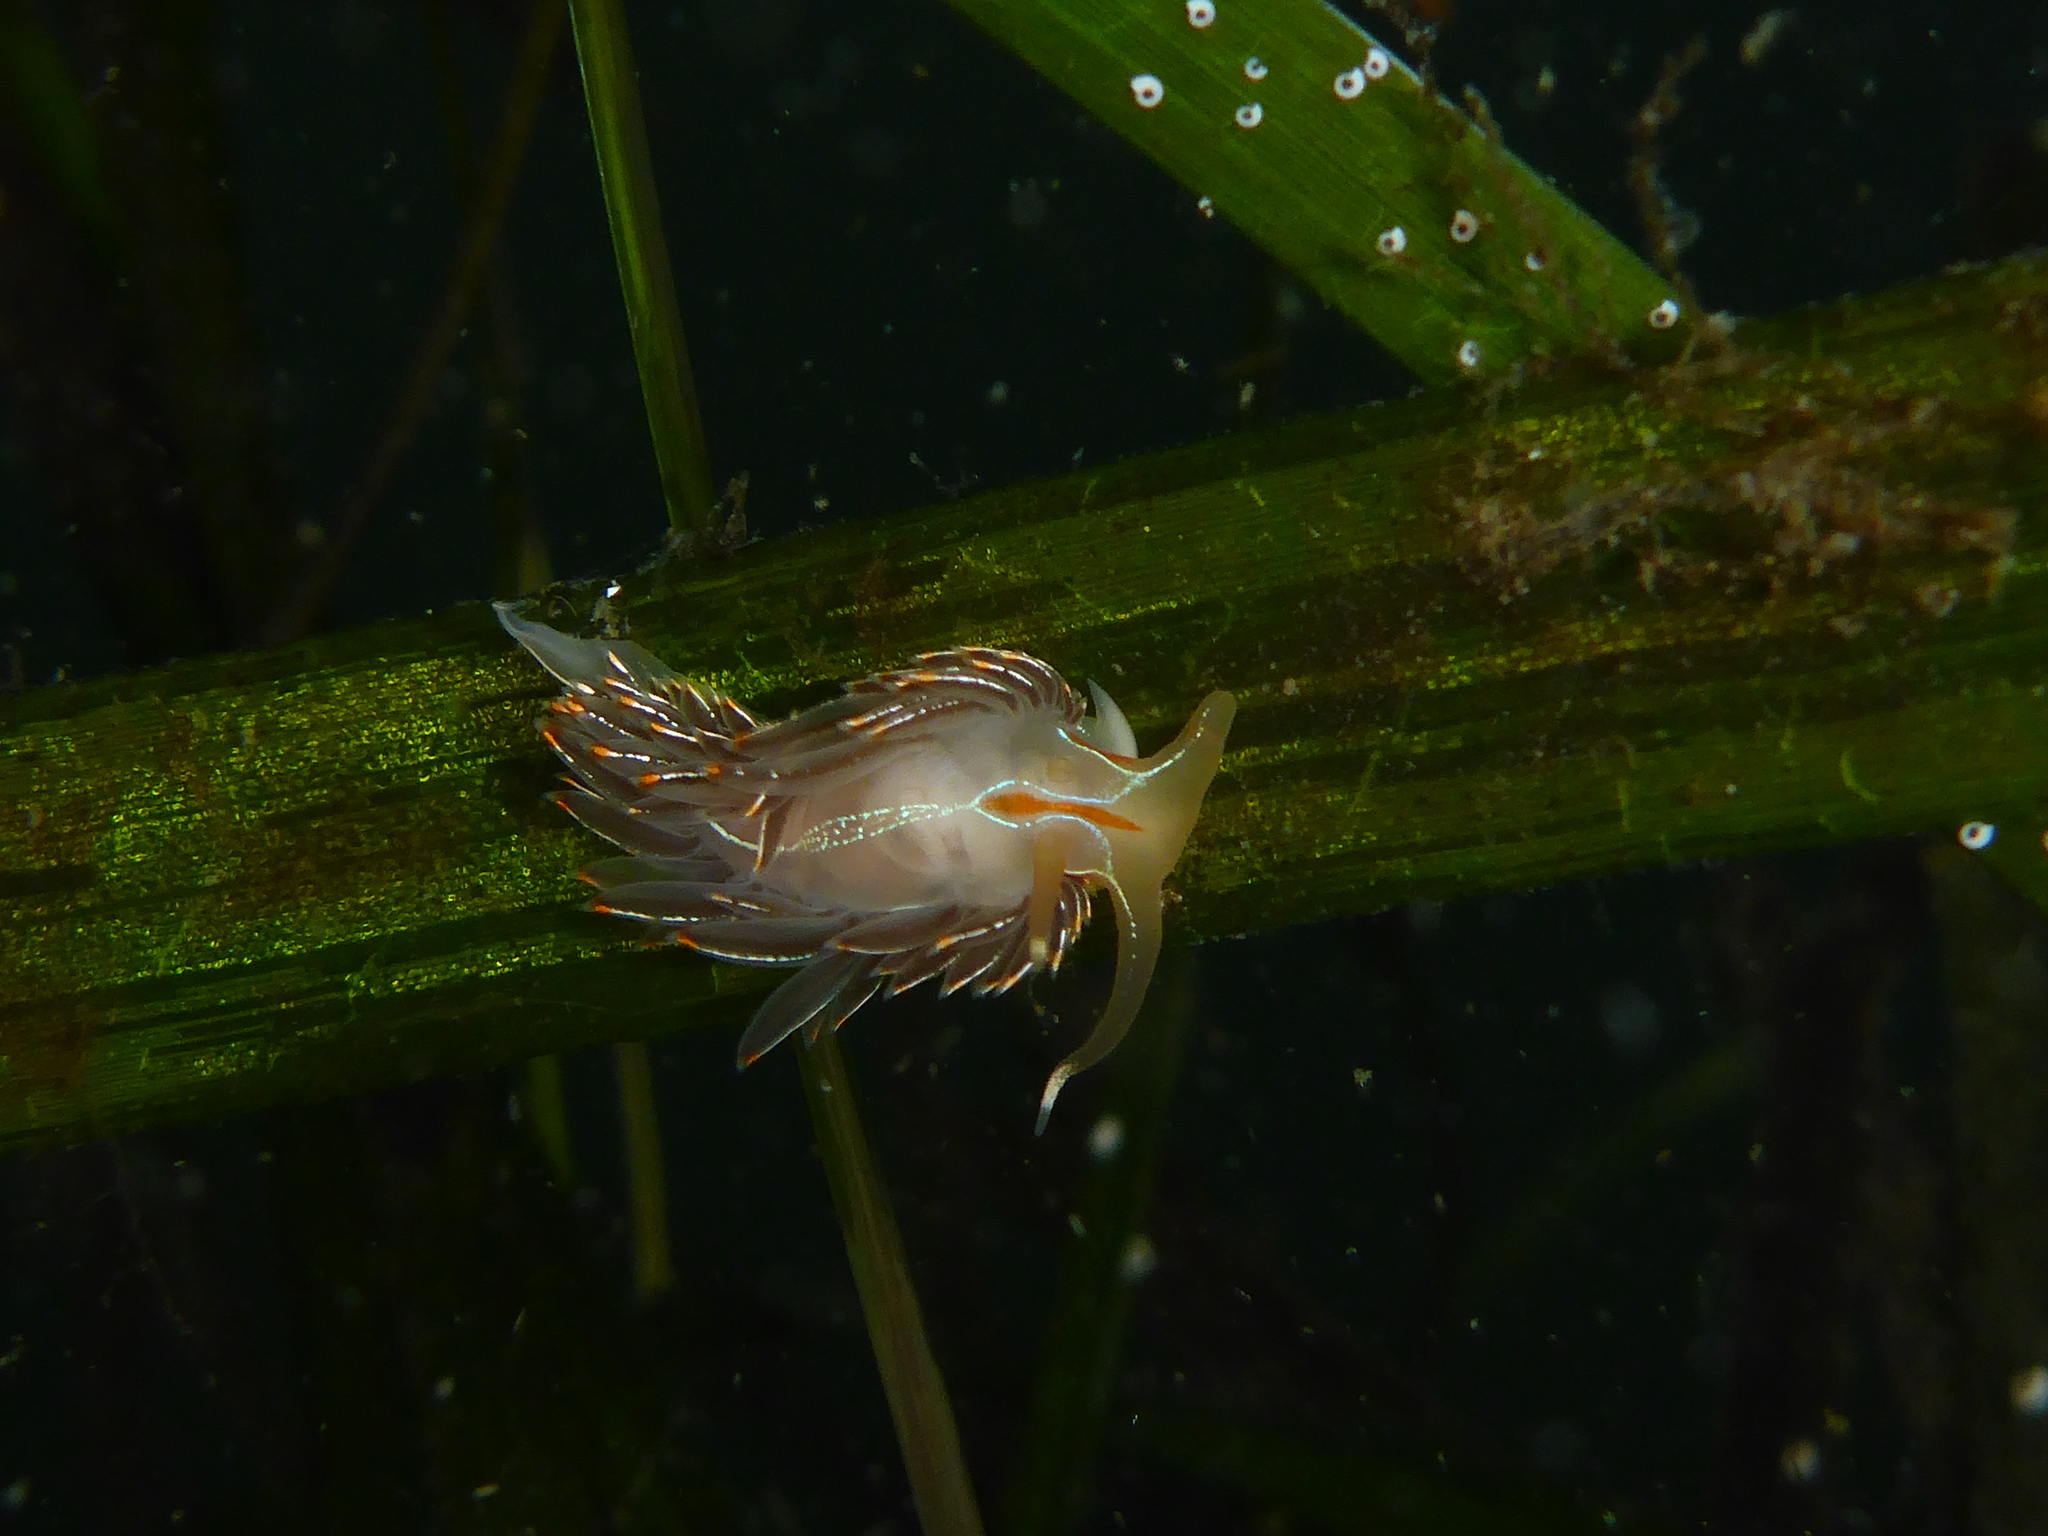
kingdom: Animalia
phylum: Mollusca
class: Gastropoda
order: Nudibranchia
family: Myrrhinidae
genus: Hermissenda
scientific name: Hermissenda crassicornis
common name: Hermissenda
